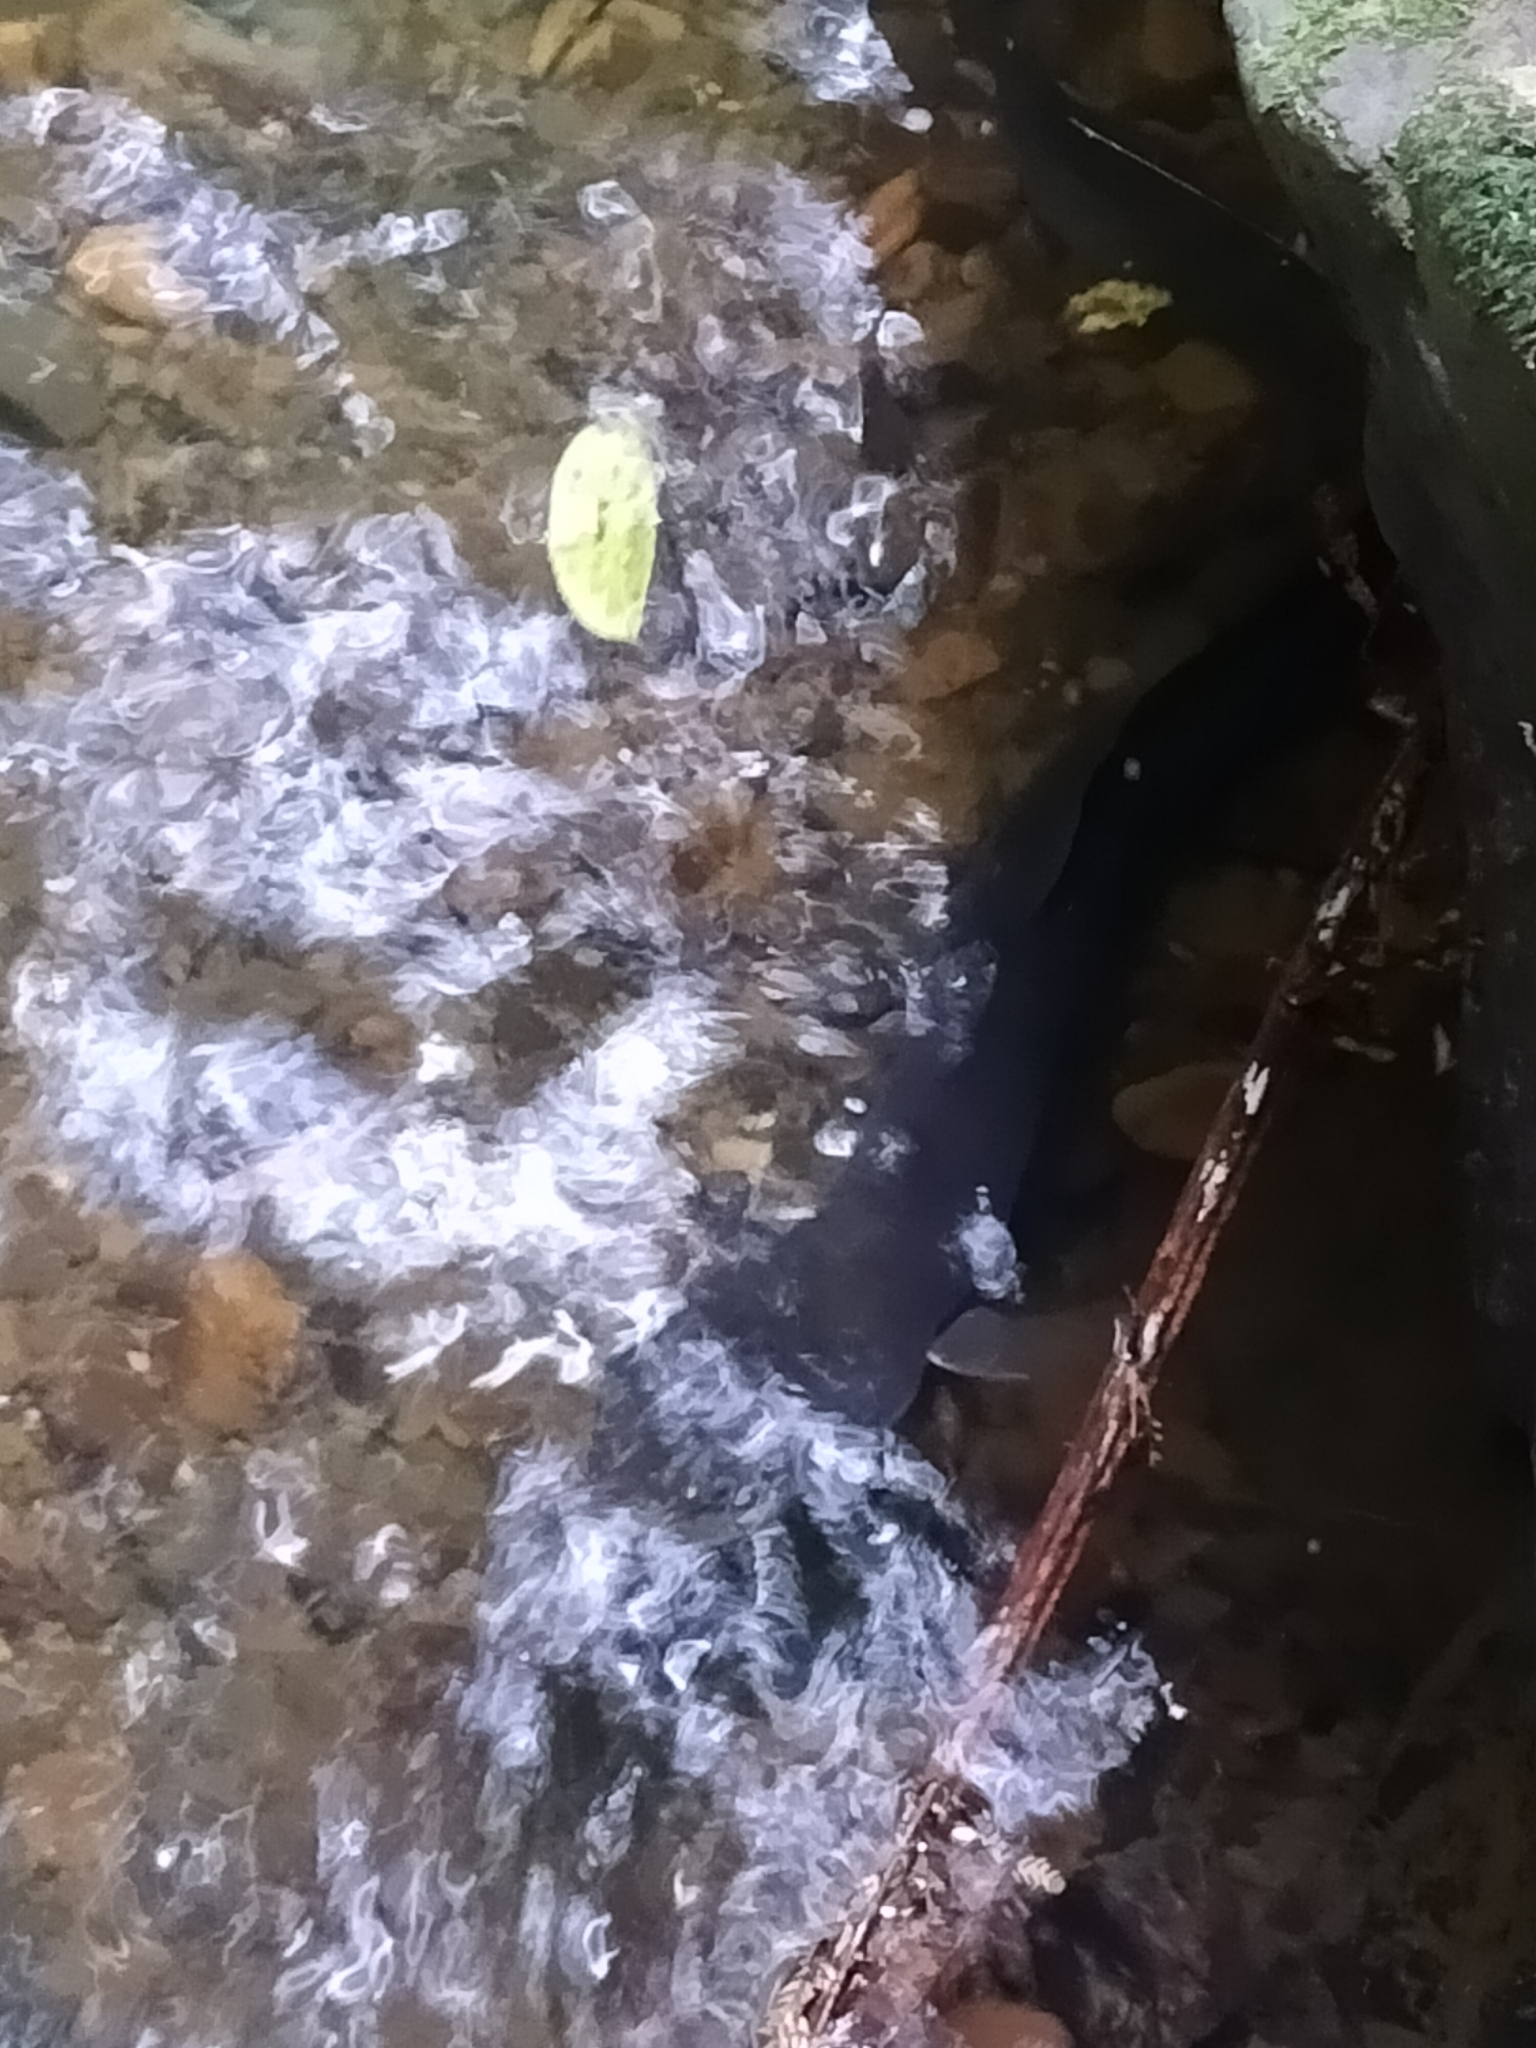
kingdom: Animalia
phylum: Chordata
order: Anguilliformes
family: Anguillidae
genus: Anguilla
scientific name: Anguilla dieffenbachii
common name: New zealand longfin eel
